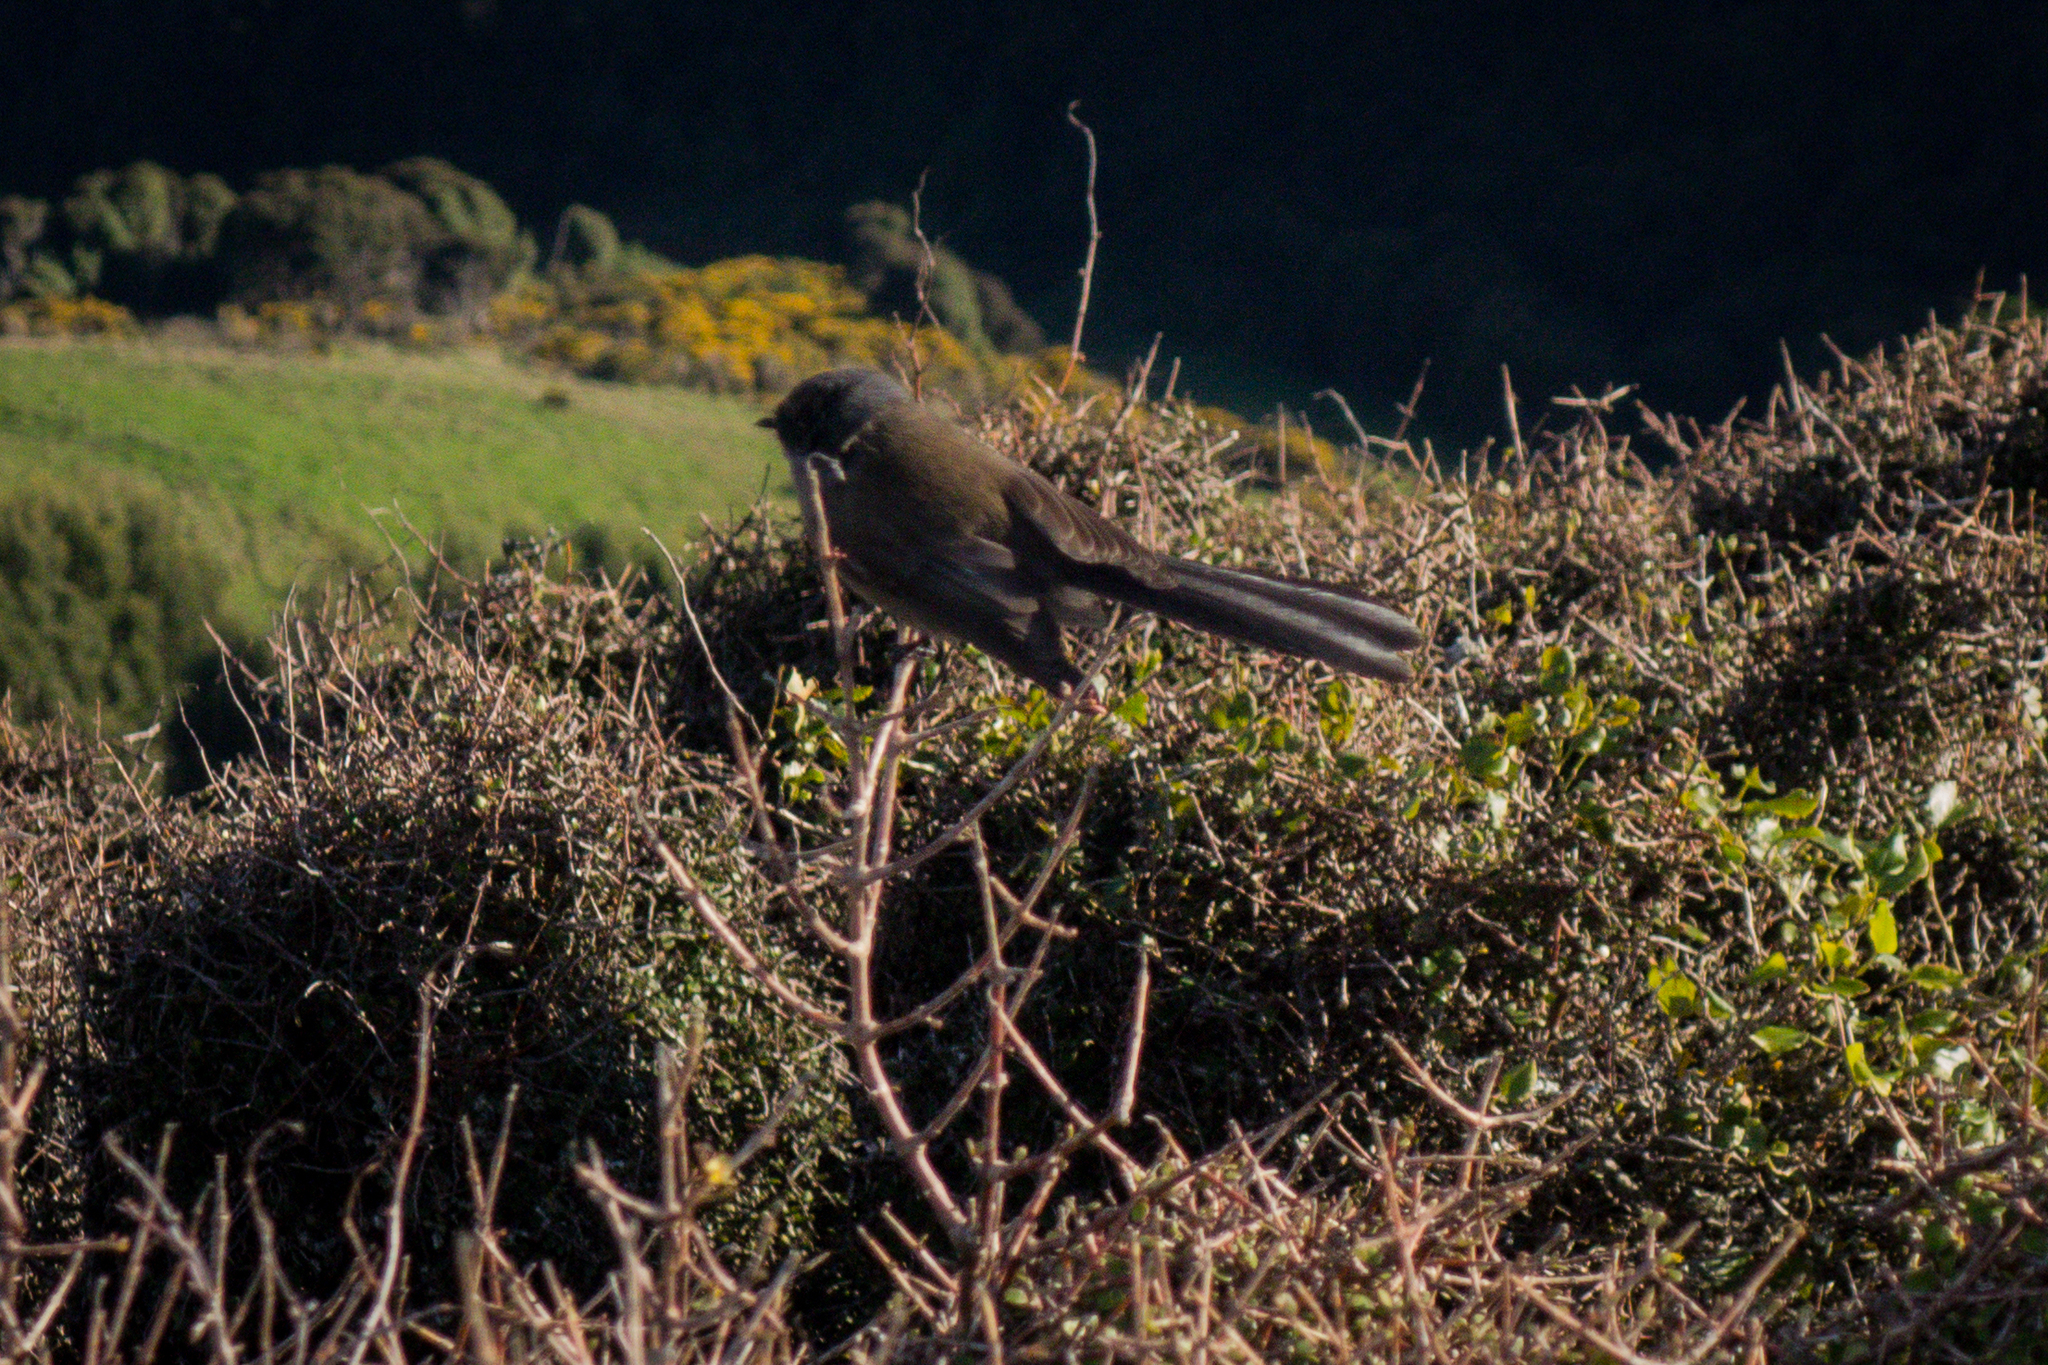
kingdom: Animalia
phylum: Chordata
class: Aves
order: Passeriformes
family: Rhipiduridae
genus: Rhipidura
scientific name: Rhipidura fuliginosa
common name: New zealand fantail
